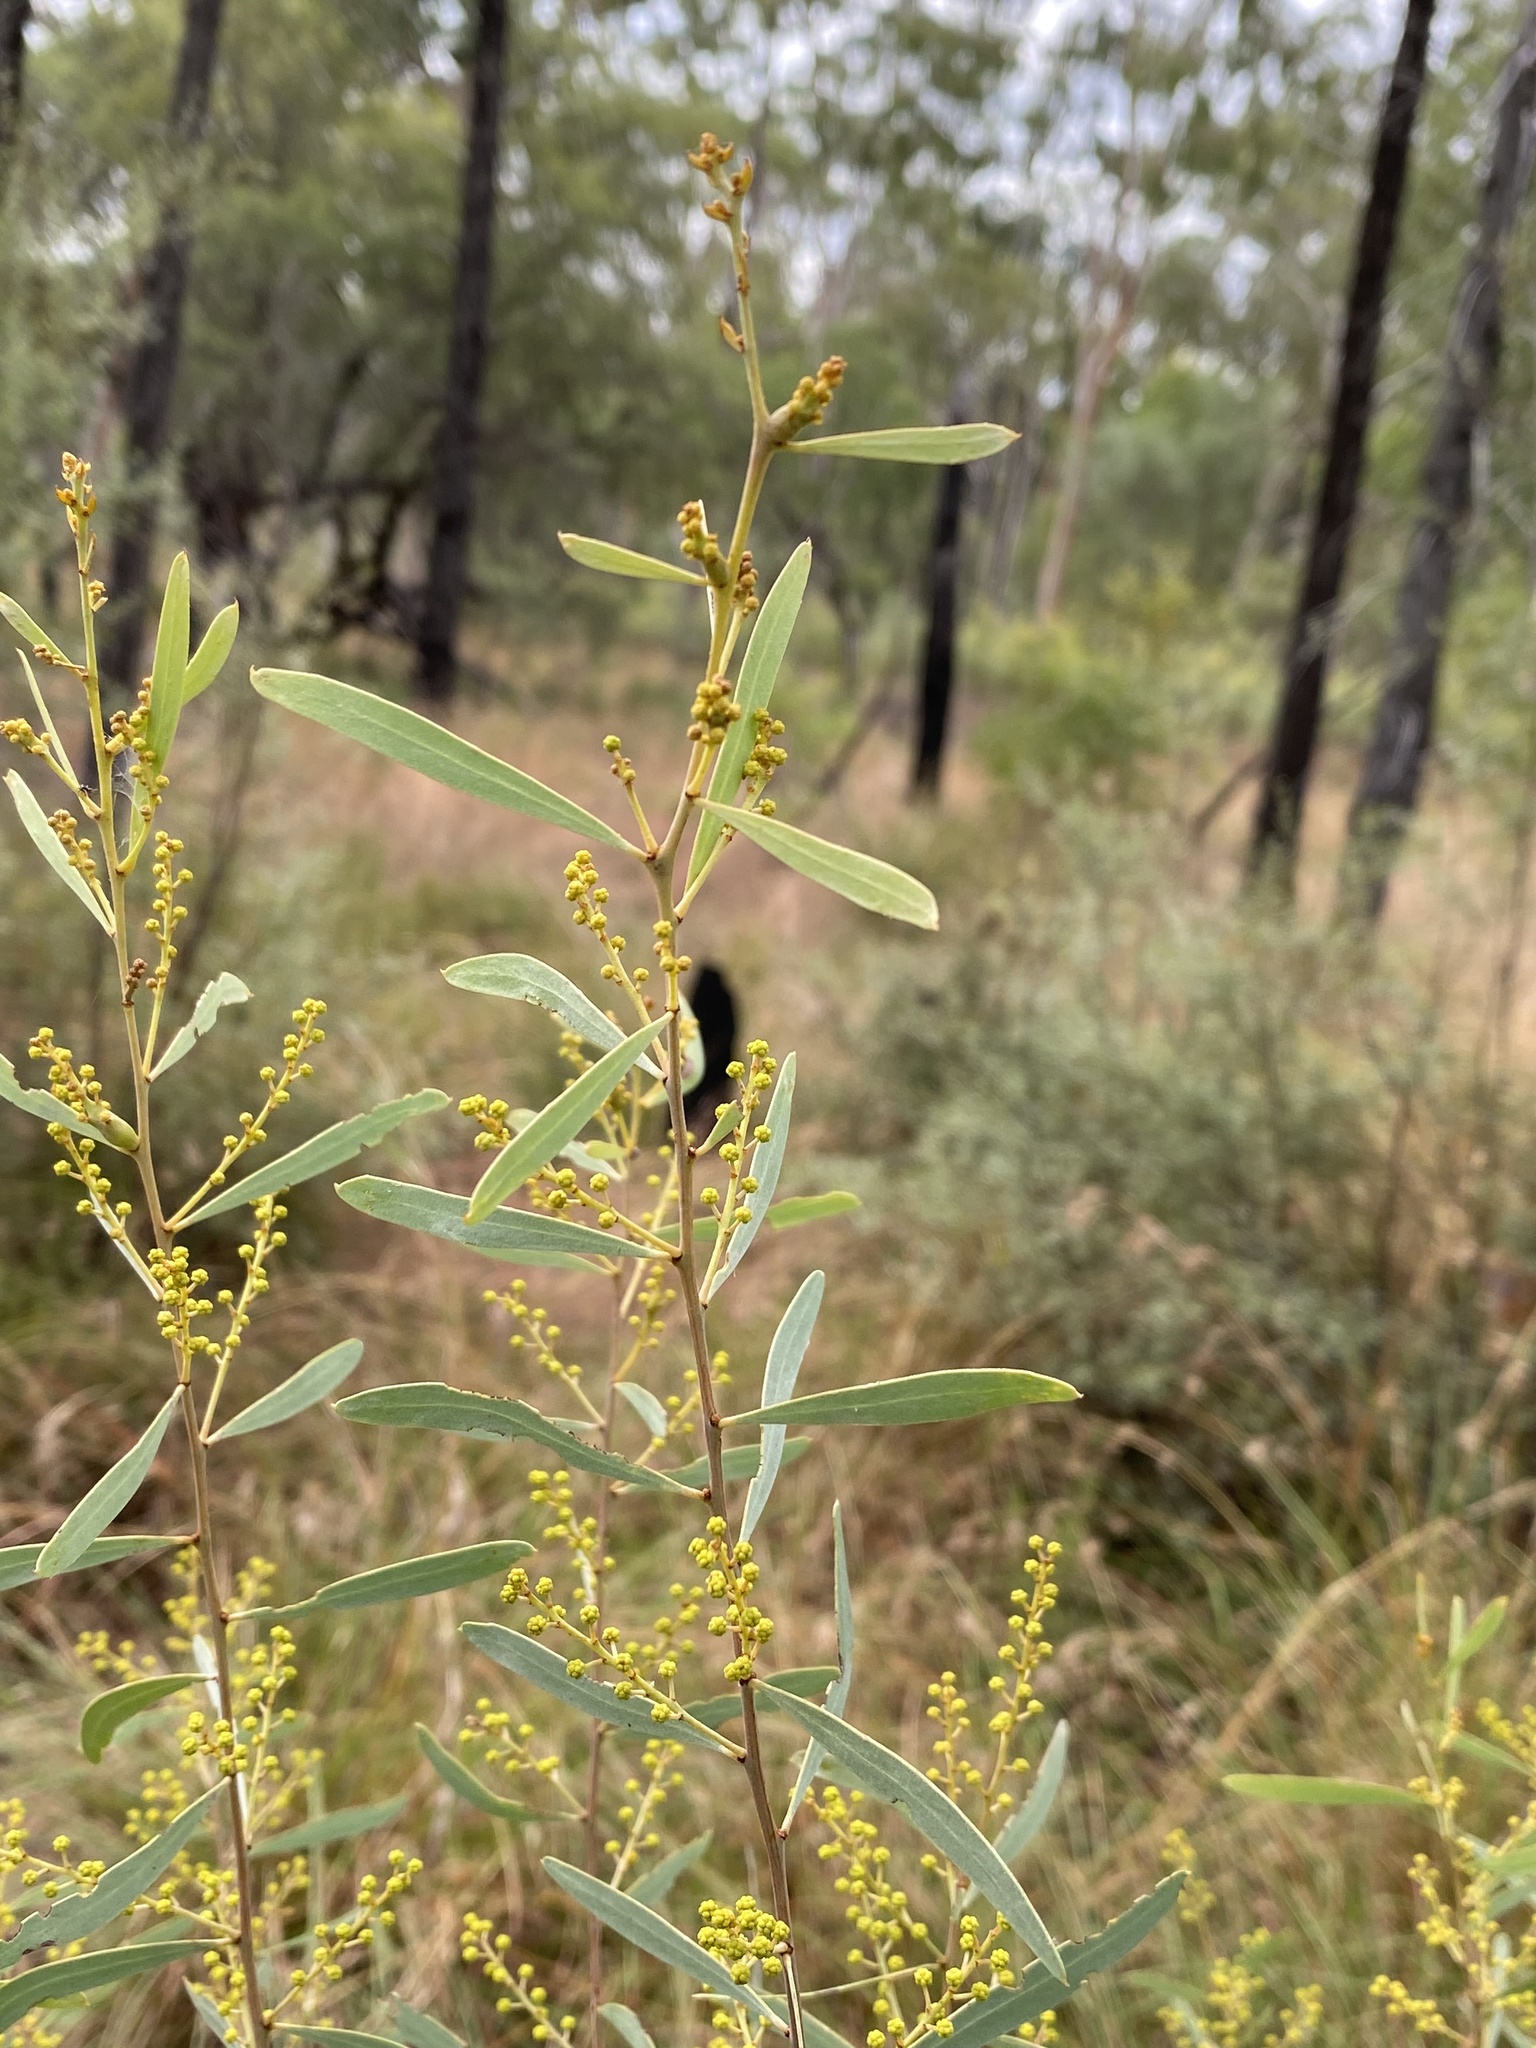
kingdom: Plantae
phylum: Tracheophyta
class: Magnoliopsida
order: Fabales
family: Fabaceae
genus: Acacia
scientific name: Acacia decora
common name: Showy wattle
